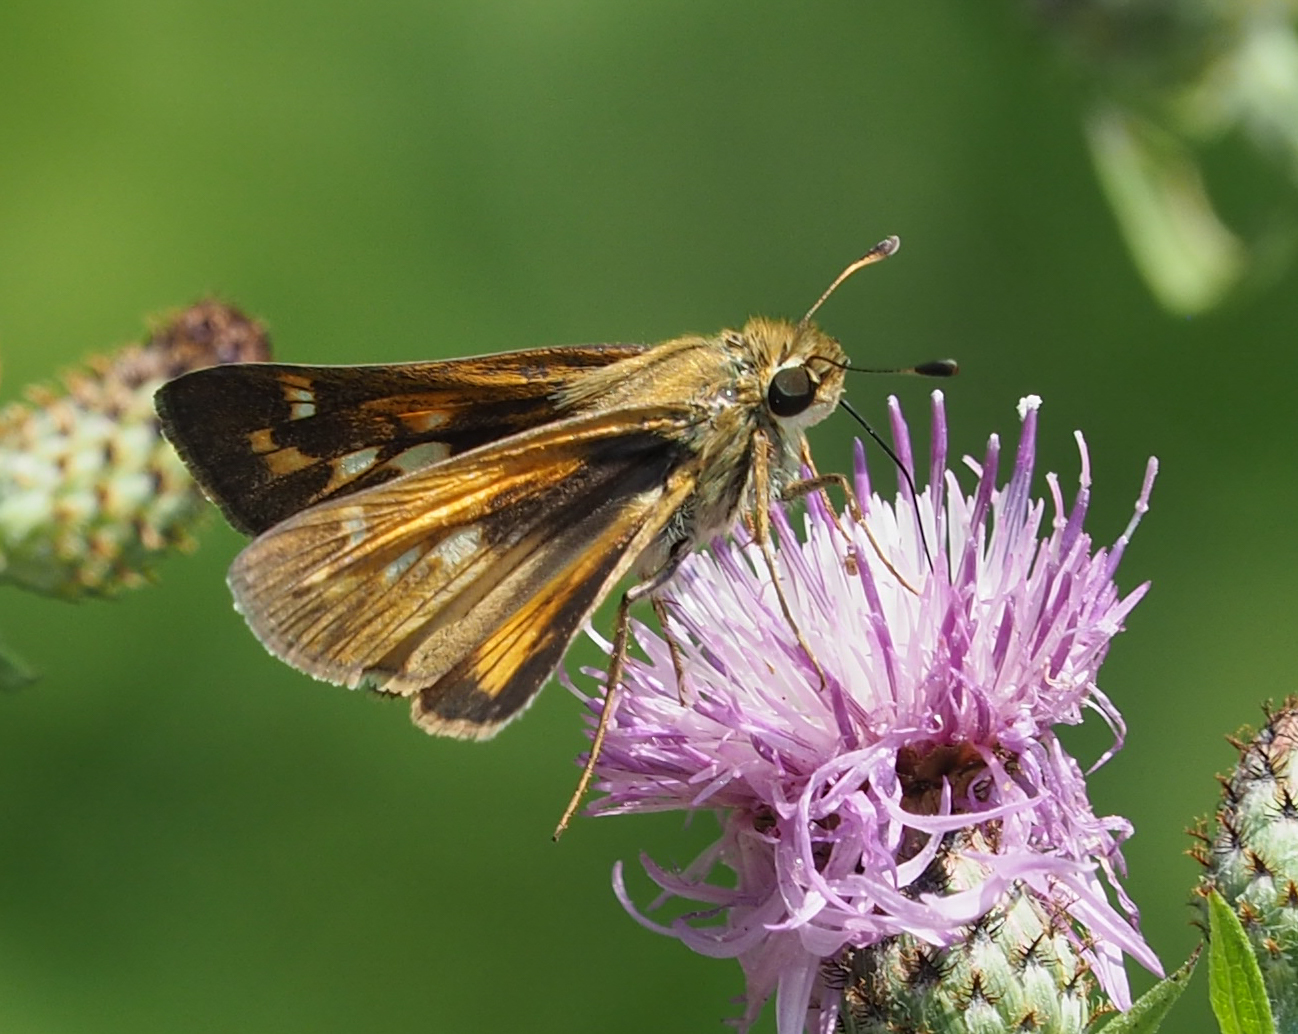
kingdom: Animalia
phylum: Arthropoda
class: Insecta
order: Lepidoptera
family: Hesperiidae
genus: Atalopedes
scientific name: Atalopedes
